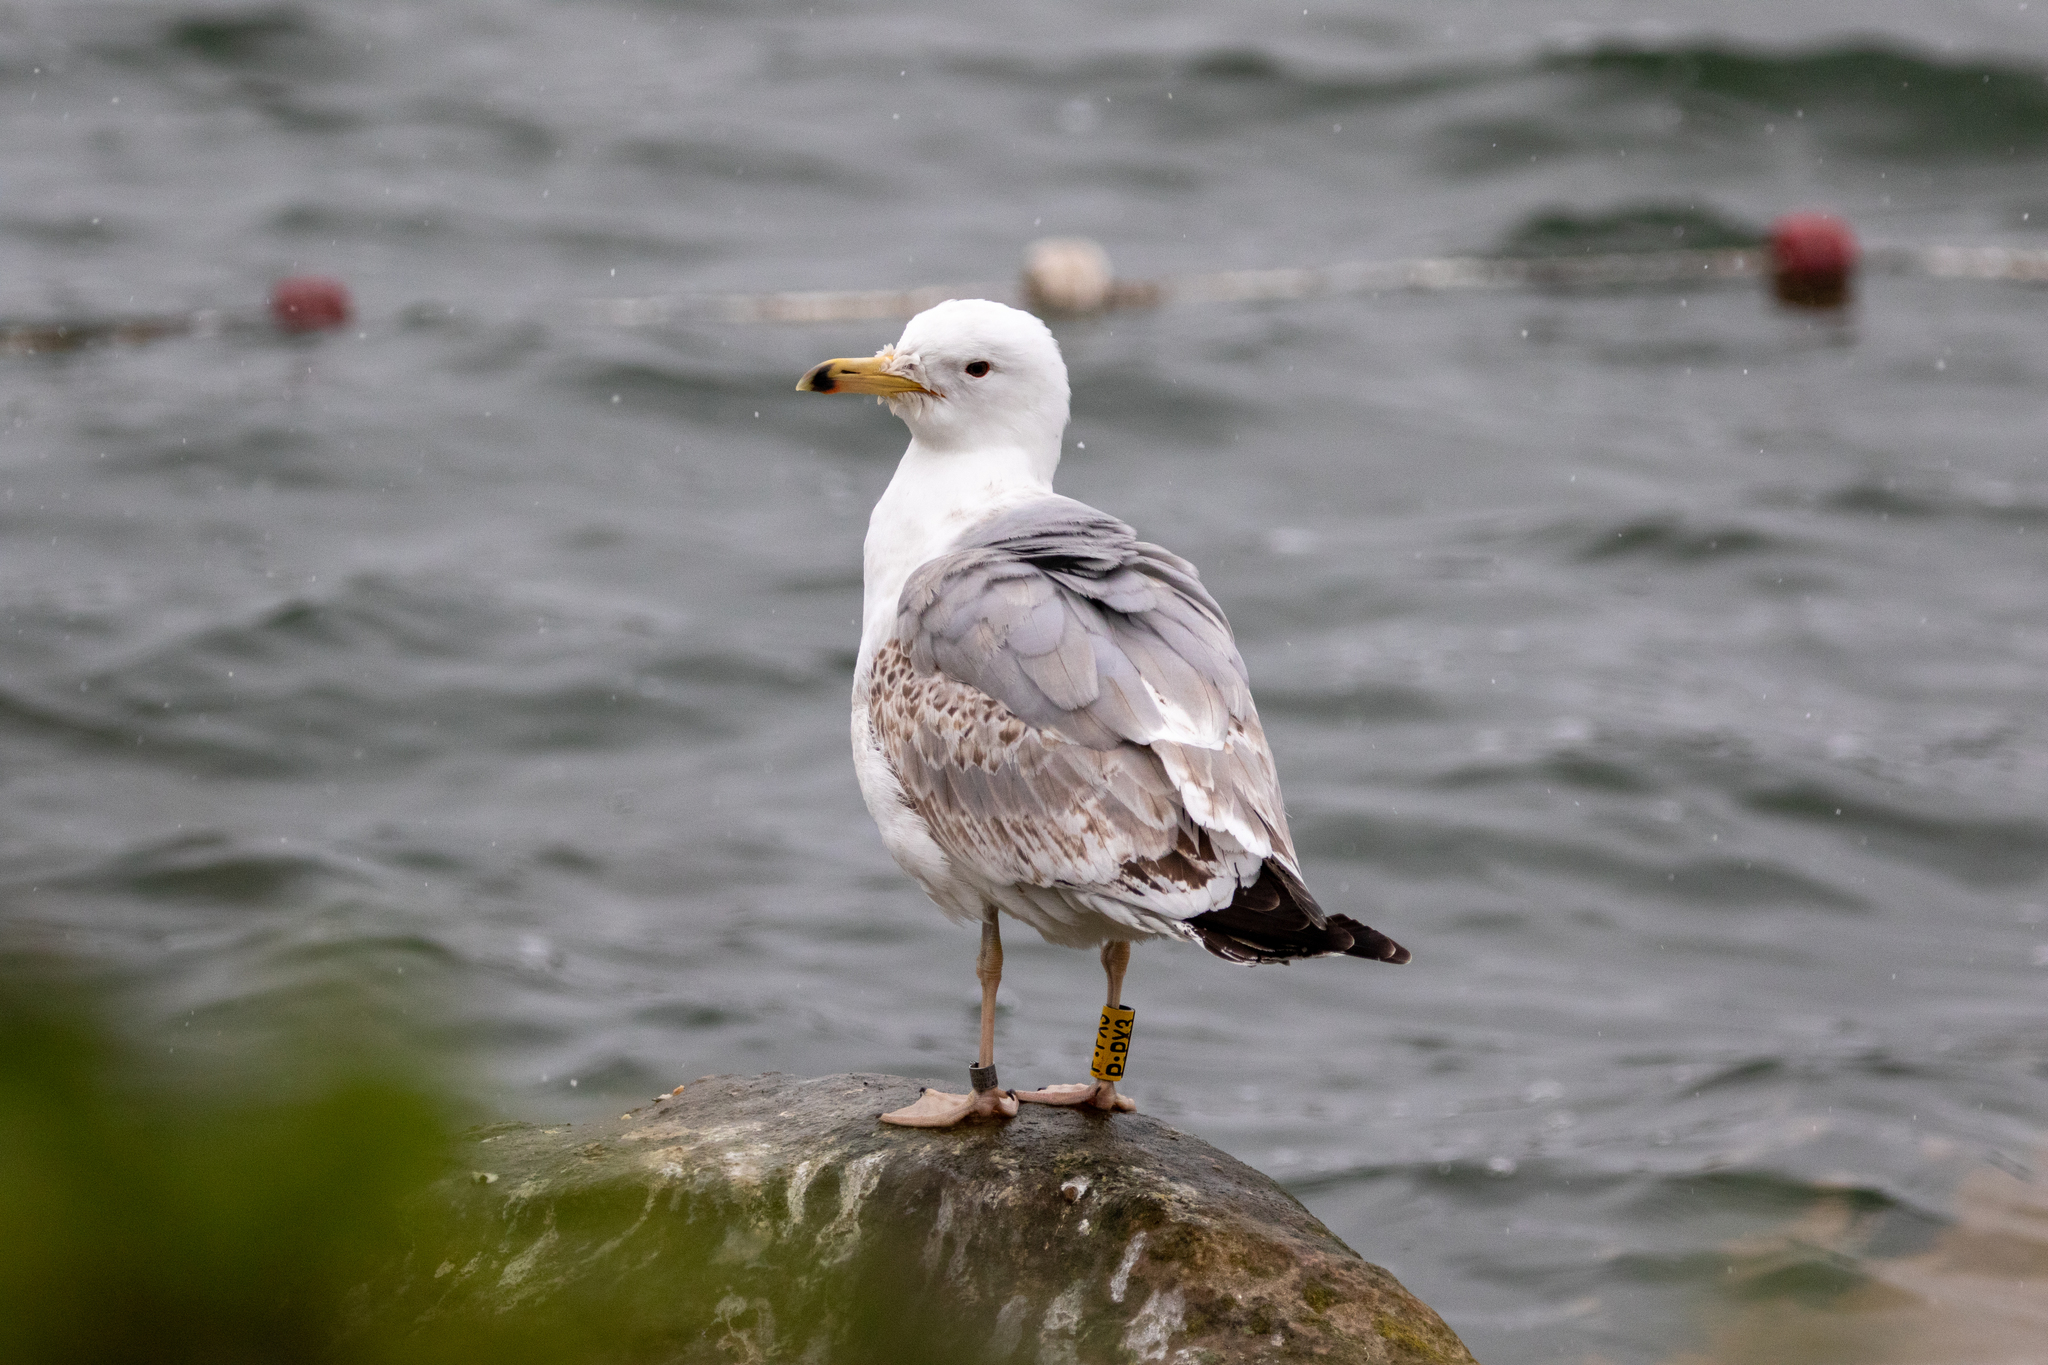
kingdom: Animalia
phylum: Chordata
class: Aves
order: Charadriiformes
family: Laridae
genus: Larus
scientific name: Larus cachinnans
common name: Caspian gull
